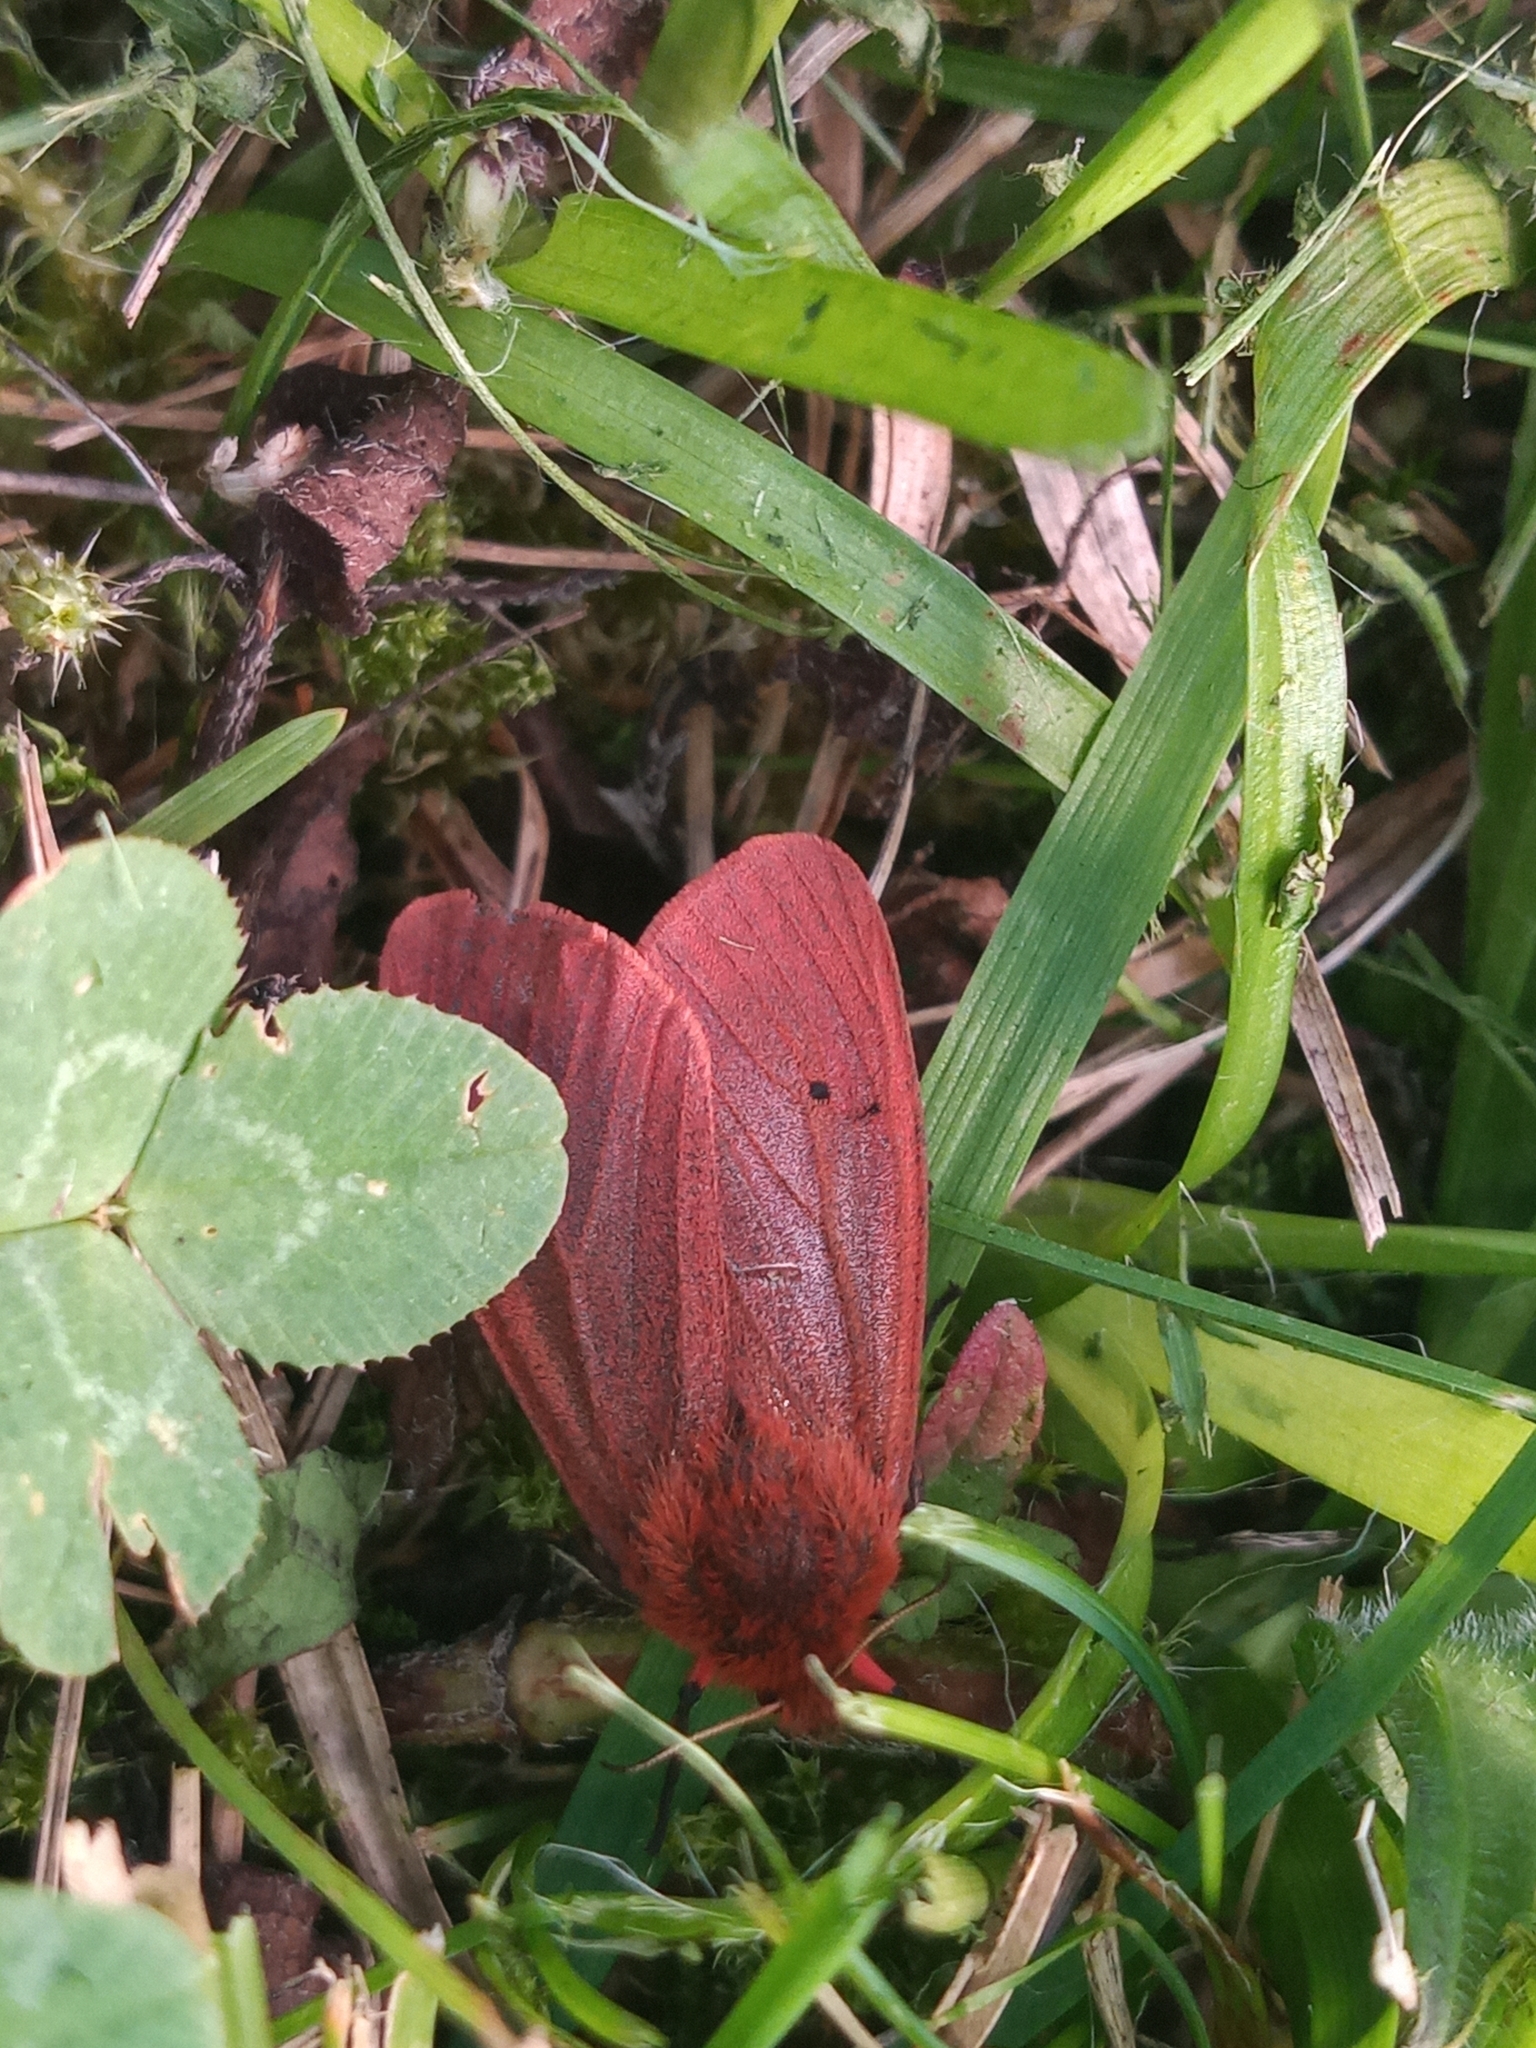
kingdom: Animalia
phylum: Arthropoda
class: Insecta
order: Lepidoptera
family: Erebidae
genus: Phragmatobia
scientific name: Phragmatobia fuliginosa
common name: Ruby tiger
